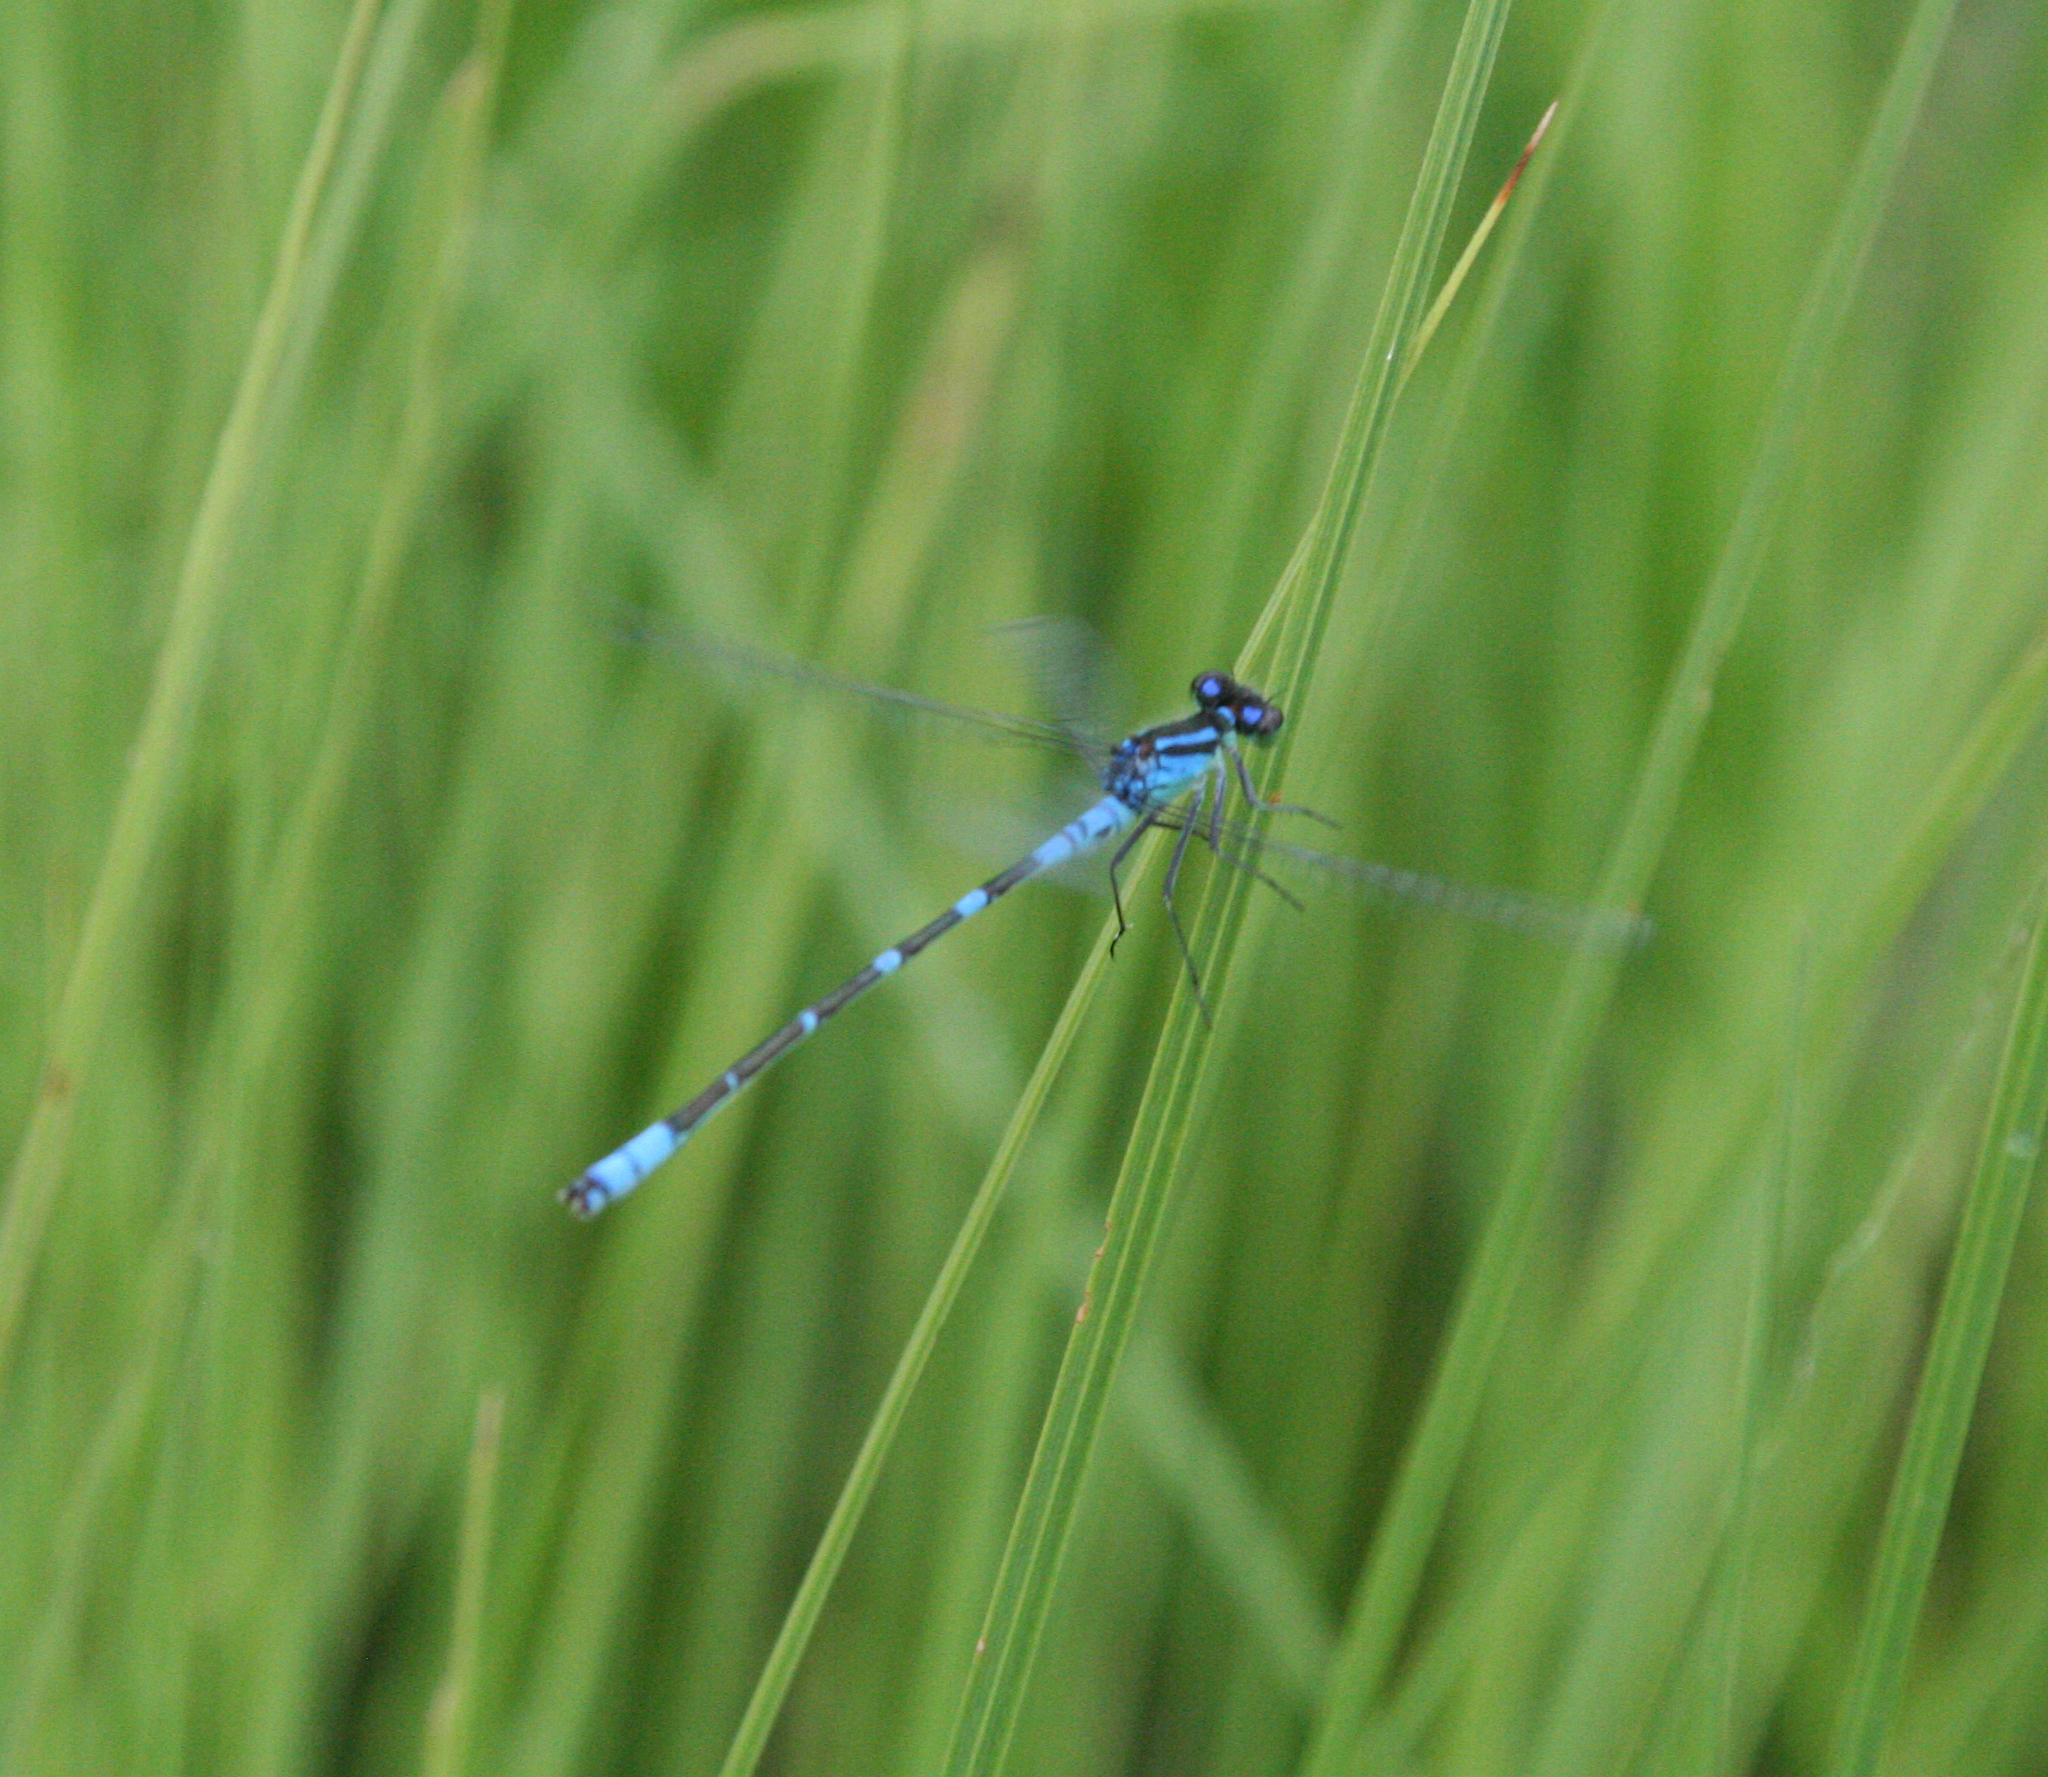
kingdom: Animalia
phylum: Arthropoda
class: Insecta
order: Odonata
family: Coenagrionidae
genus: Coenagrion
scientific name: Coenagrion lunulatum
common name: Irish damselfly
